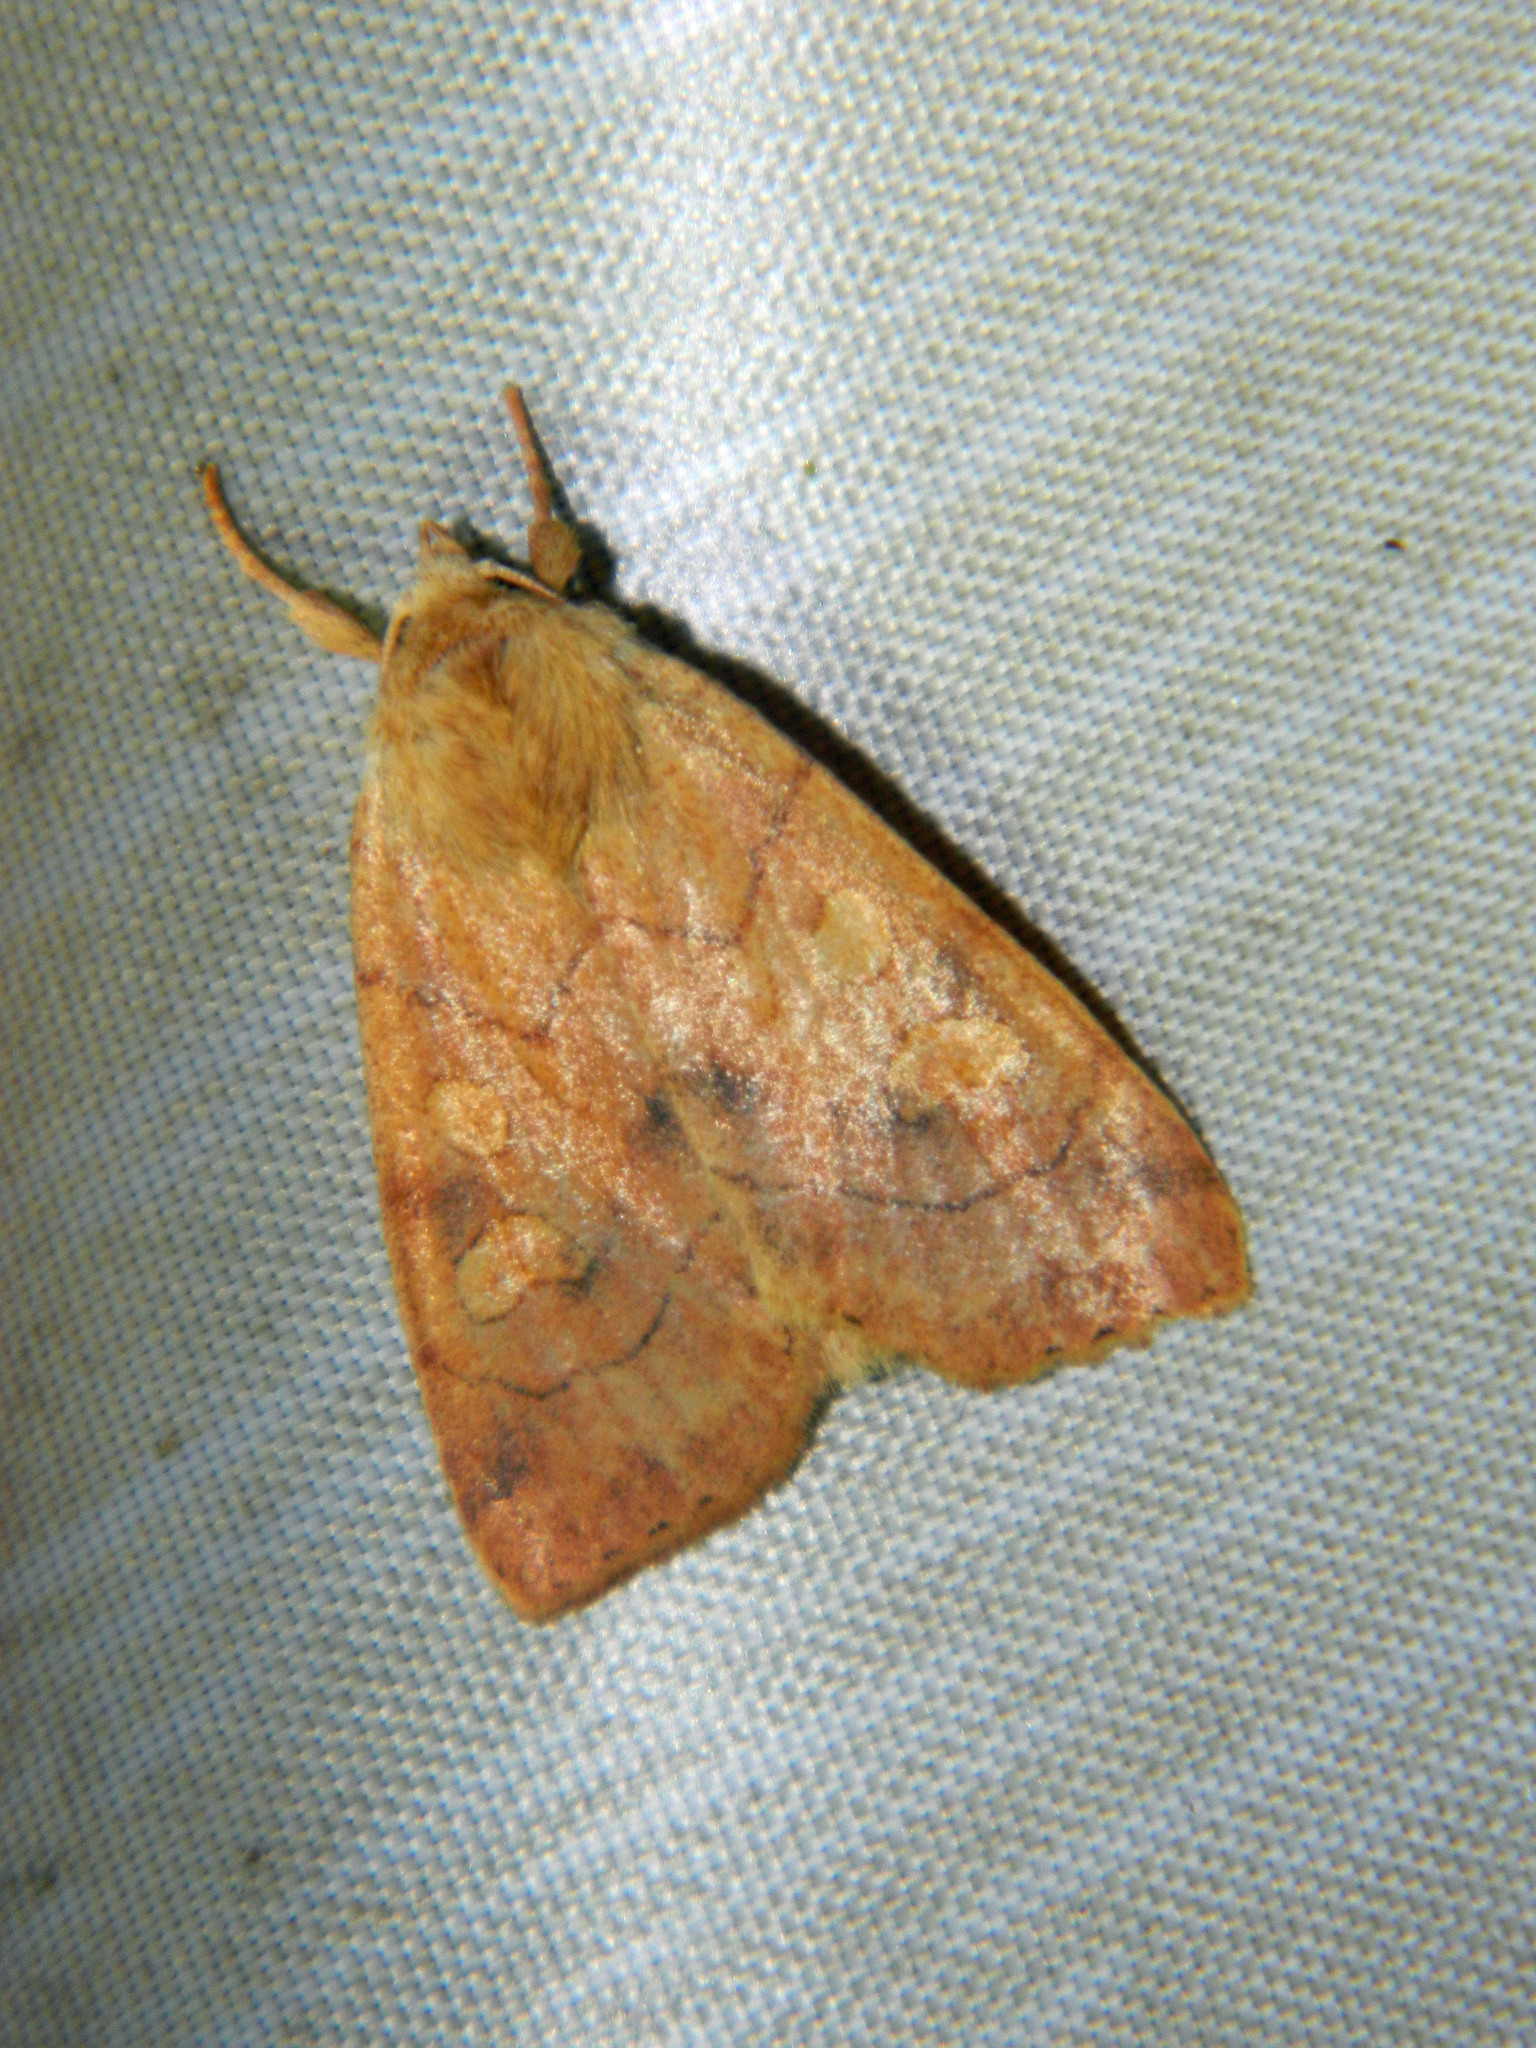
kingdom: Animalia
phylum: Arthropoda
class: Insecta
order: Lepidoptera
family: Noctuidae
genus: Enargia
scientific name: Enargia decolor
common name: Aspen twoleaf tier moth
